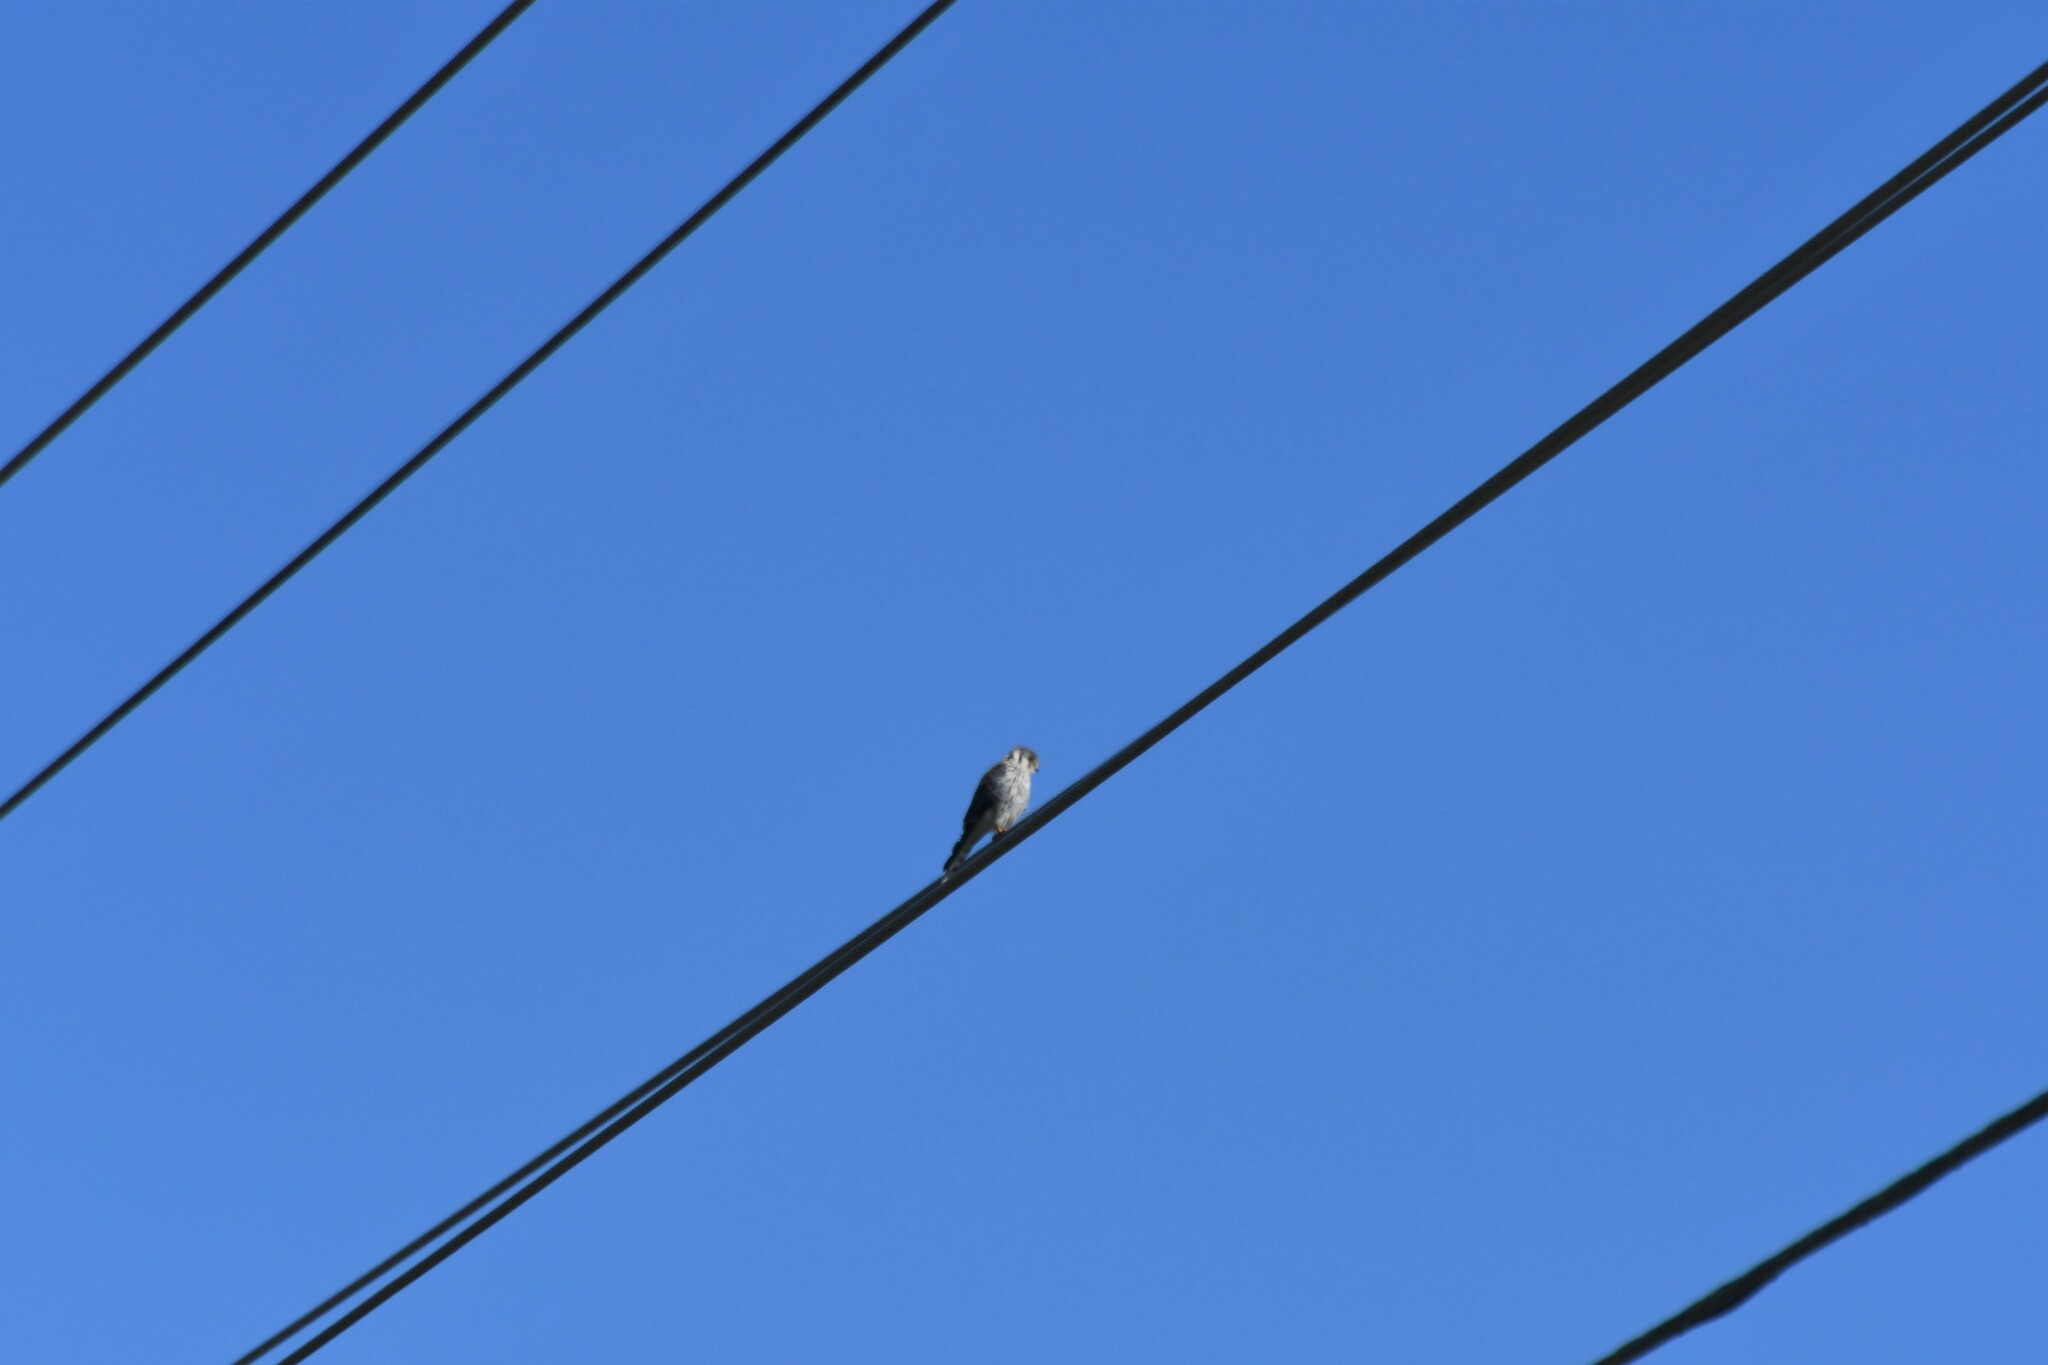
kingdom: Animalia
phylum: Chordata
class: Aves
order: Falconiformes
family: Falconidae
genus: Falco
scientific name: Falco sparverius
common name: American kestrel
